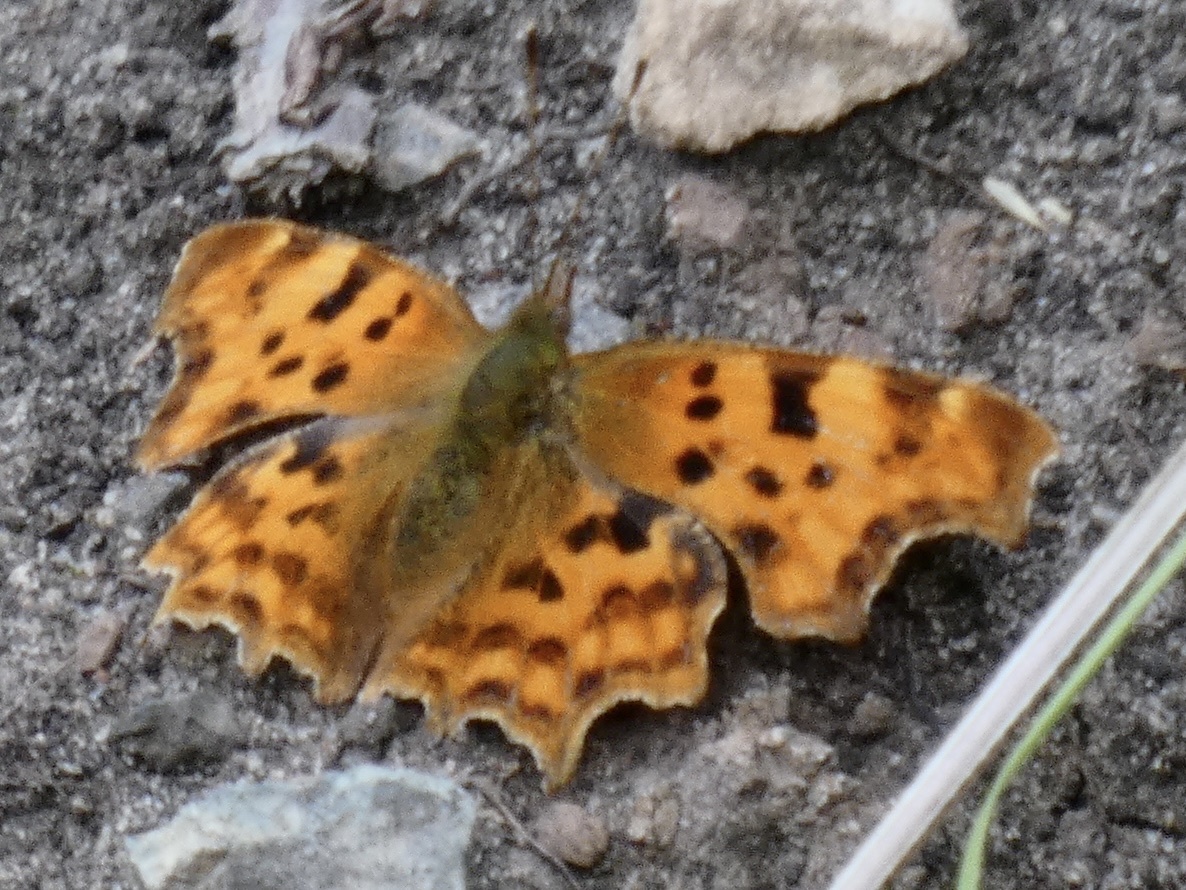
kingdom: Animalia
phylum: Arthropoda
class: Insecta
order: Lepidoptera
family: Nymphalidae
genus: Polygonia
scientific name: Polygonia c-album
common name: Comma
